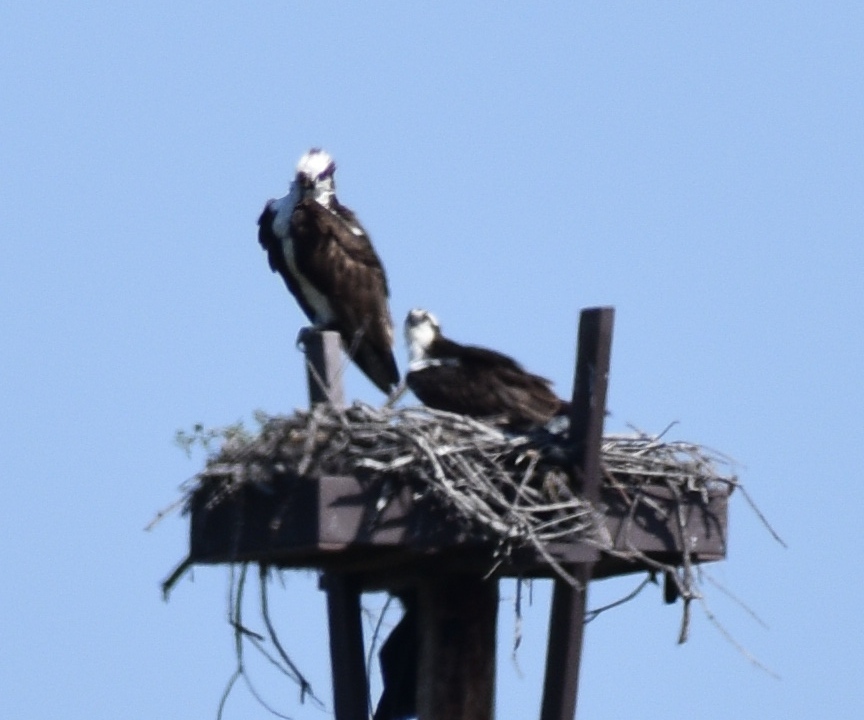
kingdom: Animalia
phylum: Chordata
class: Aves
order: Accipitriformes
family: Pandionidae
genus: Pandion
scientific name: Pandion haliaetus
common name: Osprey
